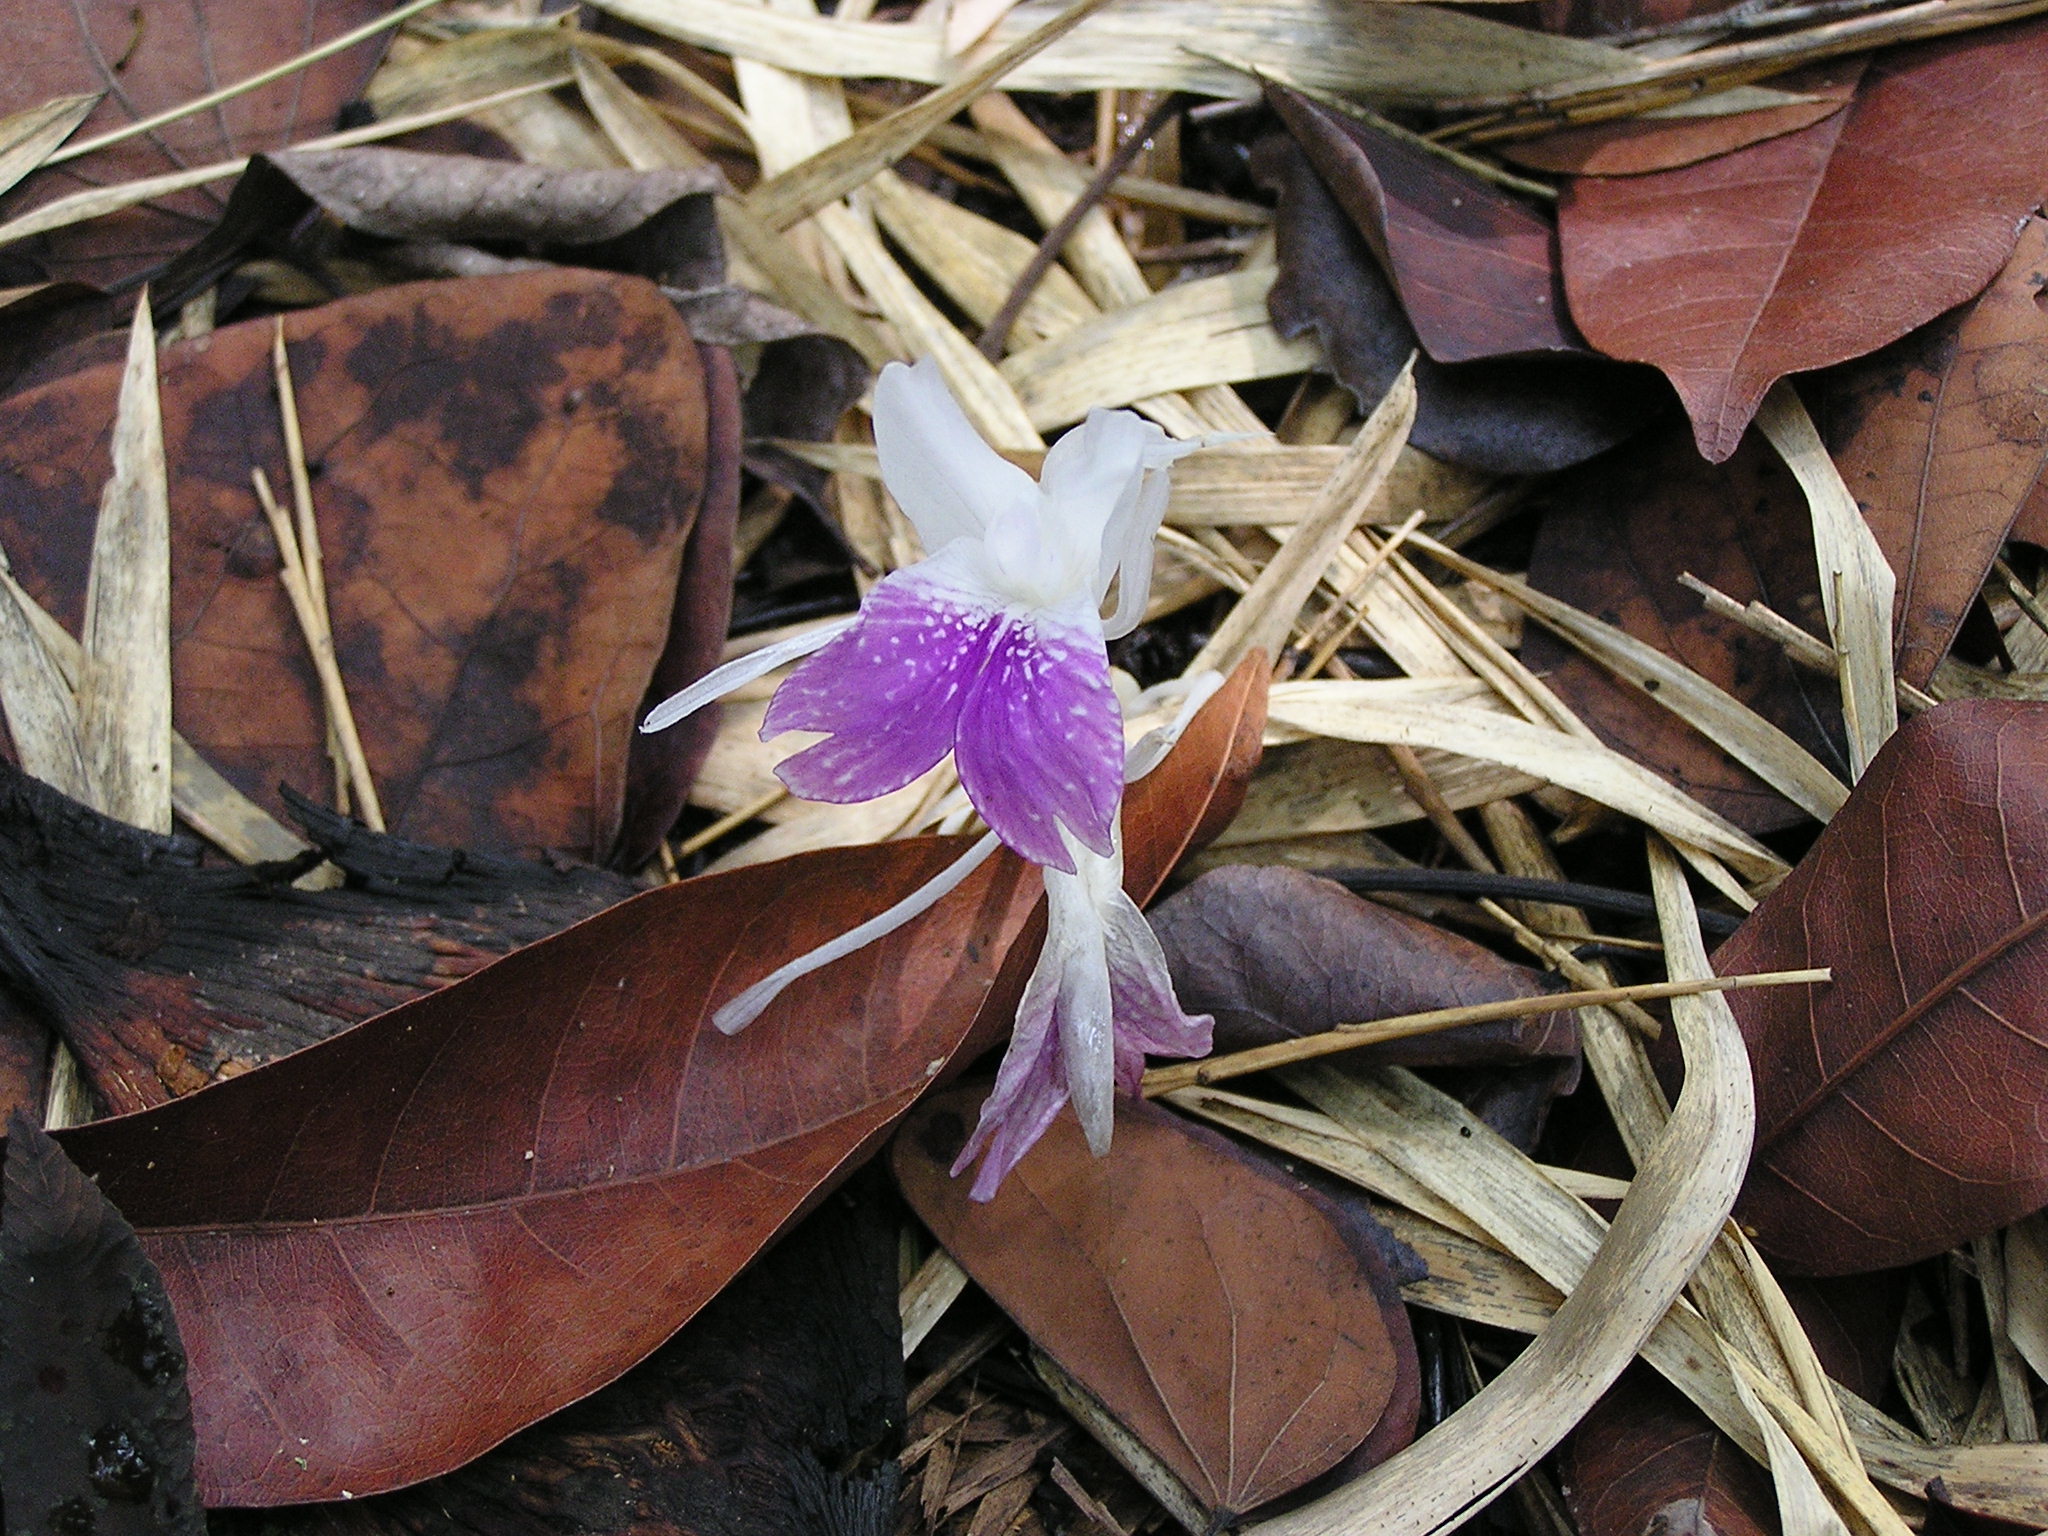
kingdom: Plantae
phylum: Tracheophyta
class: Liliopsida
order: Zingiberales
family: Zingiberaceae
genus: Kaempferia
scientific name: Kaempferia rotunda
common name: Tropical-crocus
